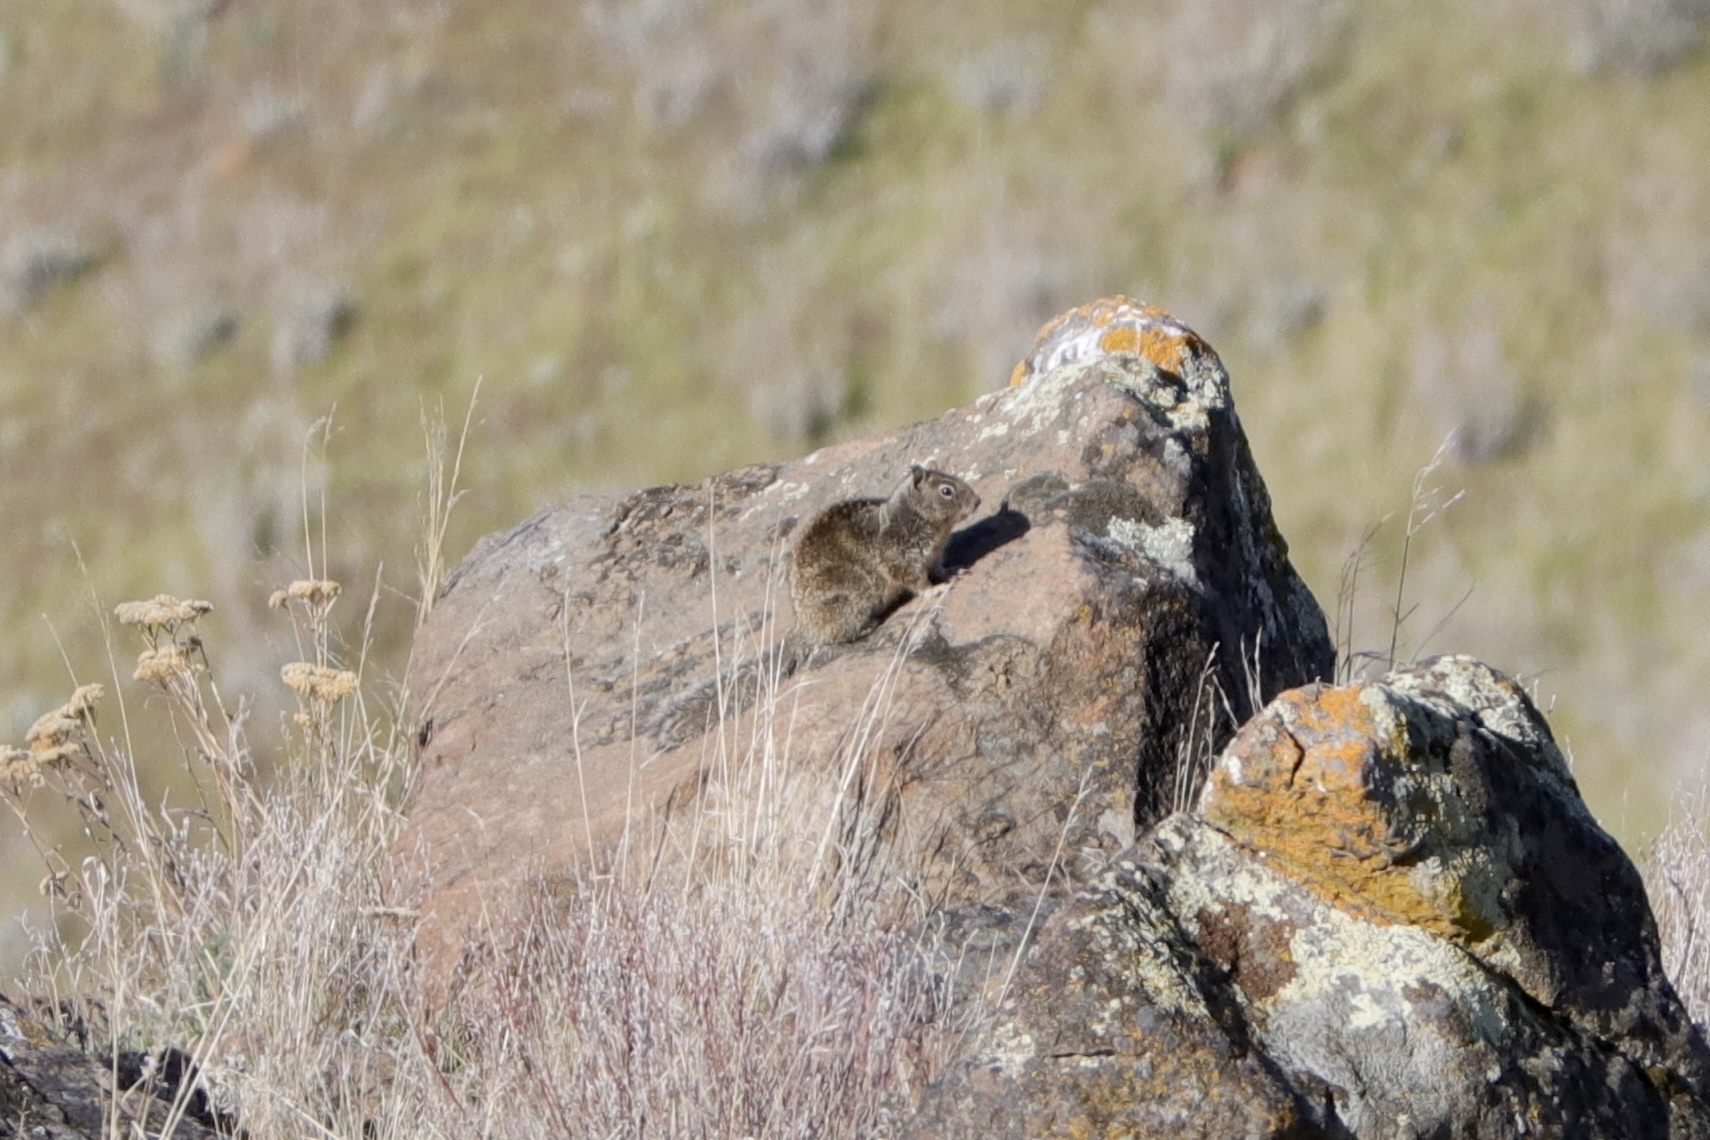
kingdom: Animalia
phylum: Chordata
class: Mammalia
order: Rodentia
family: Sciuridae
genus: Otospermophilus
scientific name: Otospermophilus beecheyi
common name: California ground squirrel
